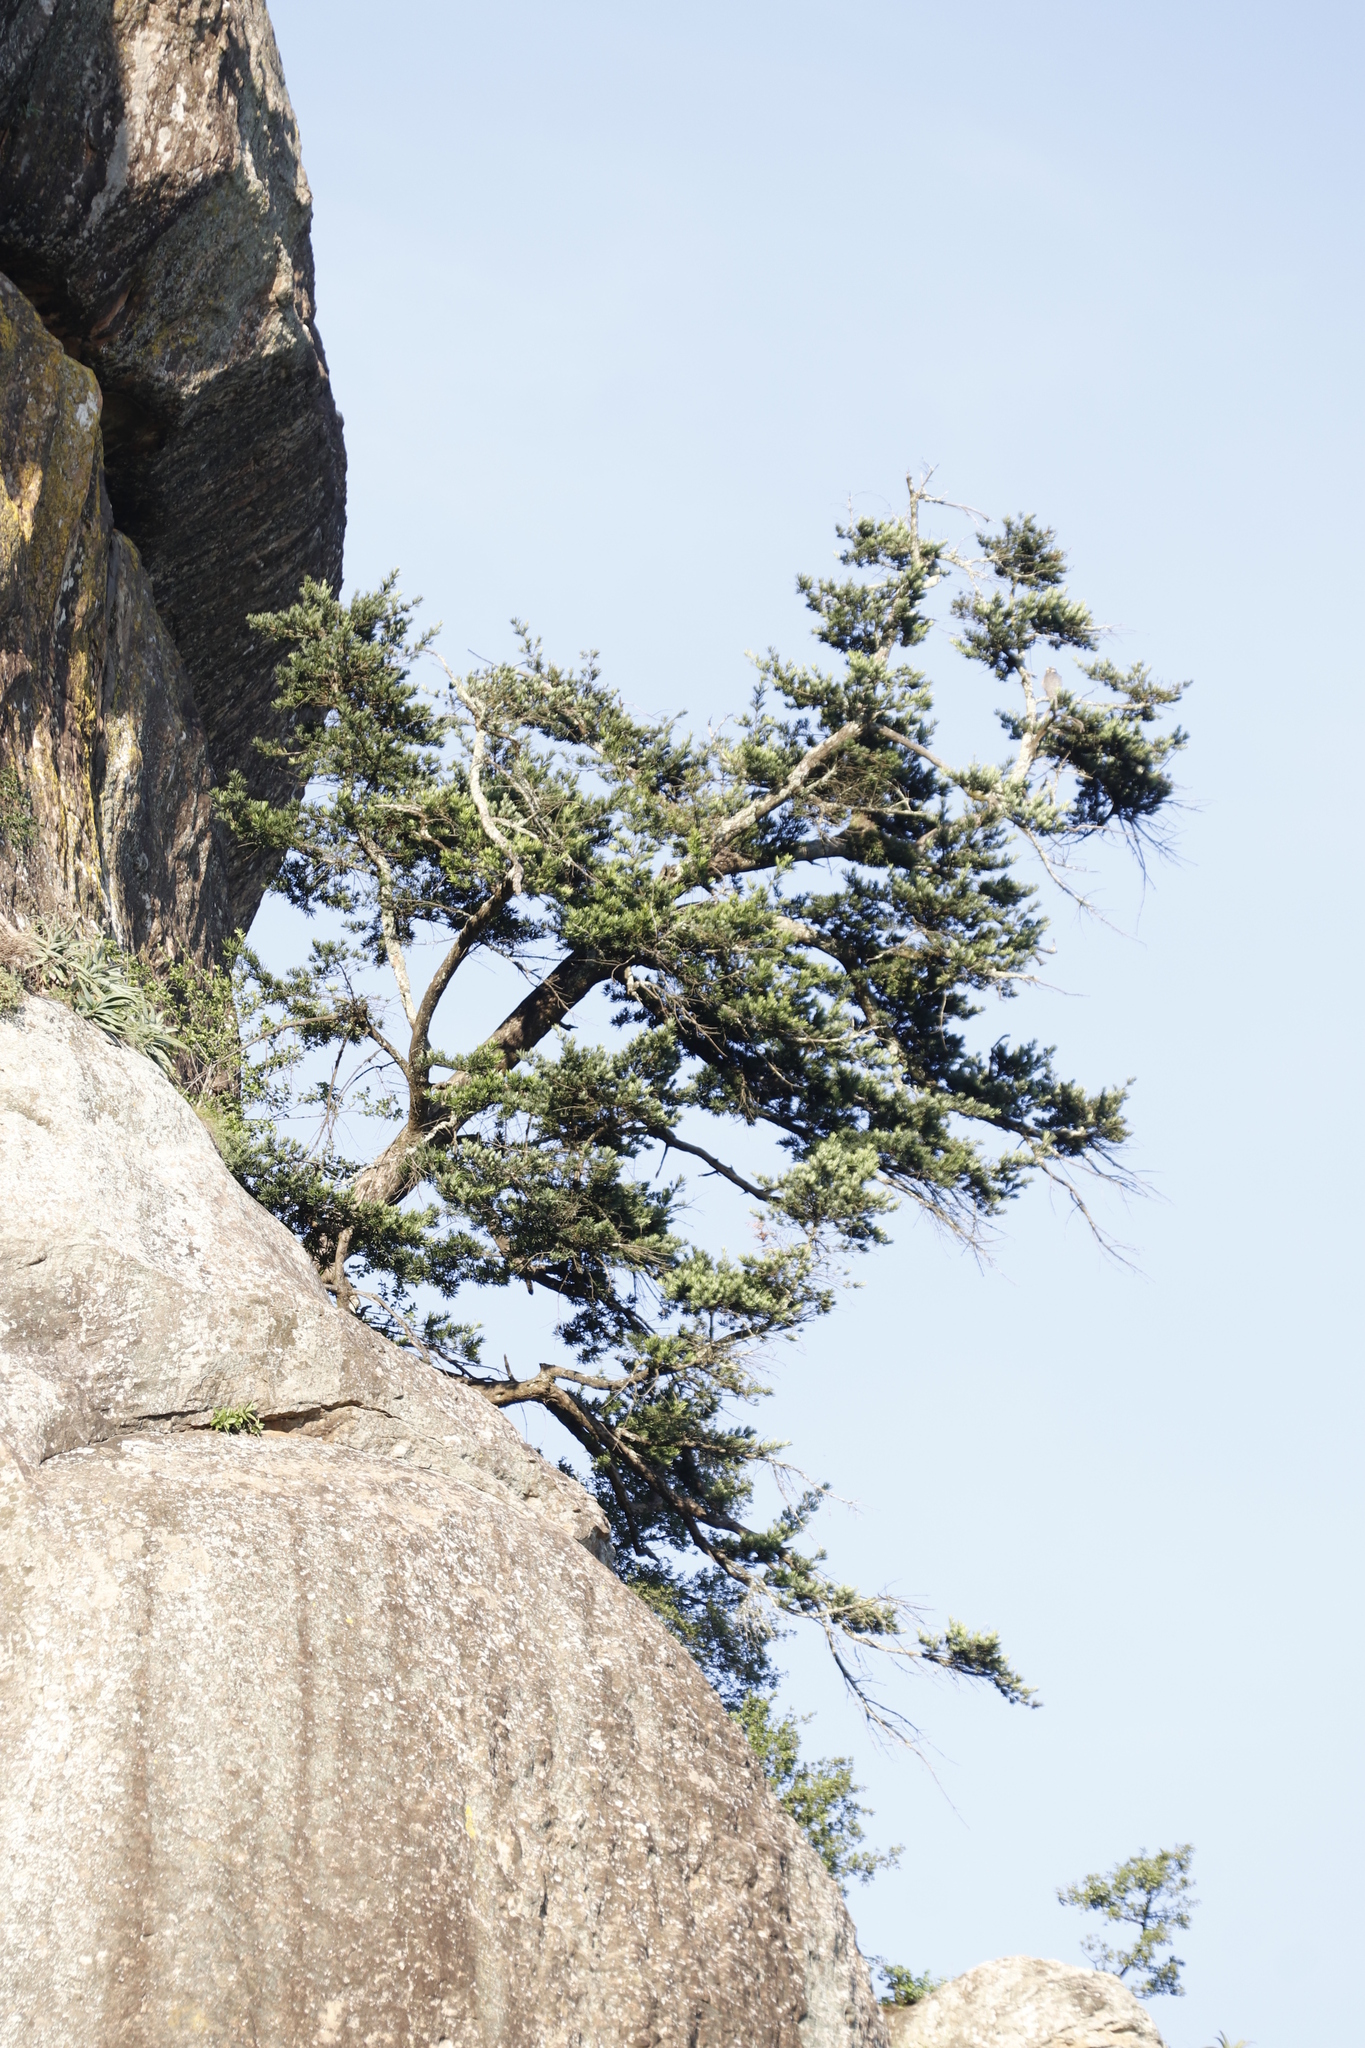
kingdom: Plantae
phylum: Tracheophyta
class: Pinopsida
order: Pinales
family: Podocarpaceae
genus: Podocarpus
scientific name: Podocarpus latifolius
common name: True yellowwood
